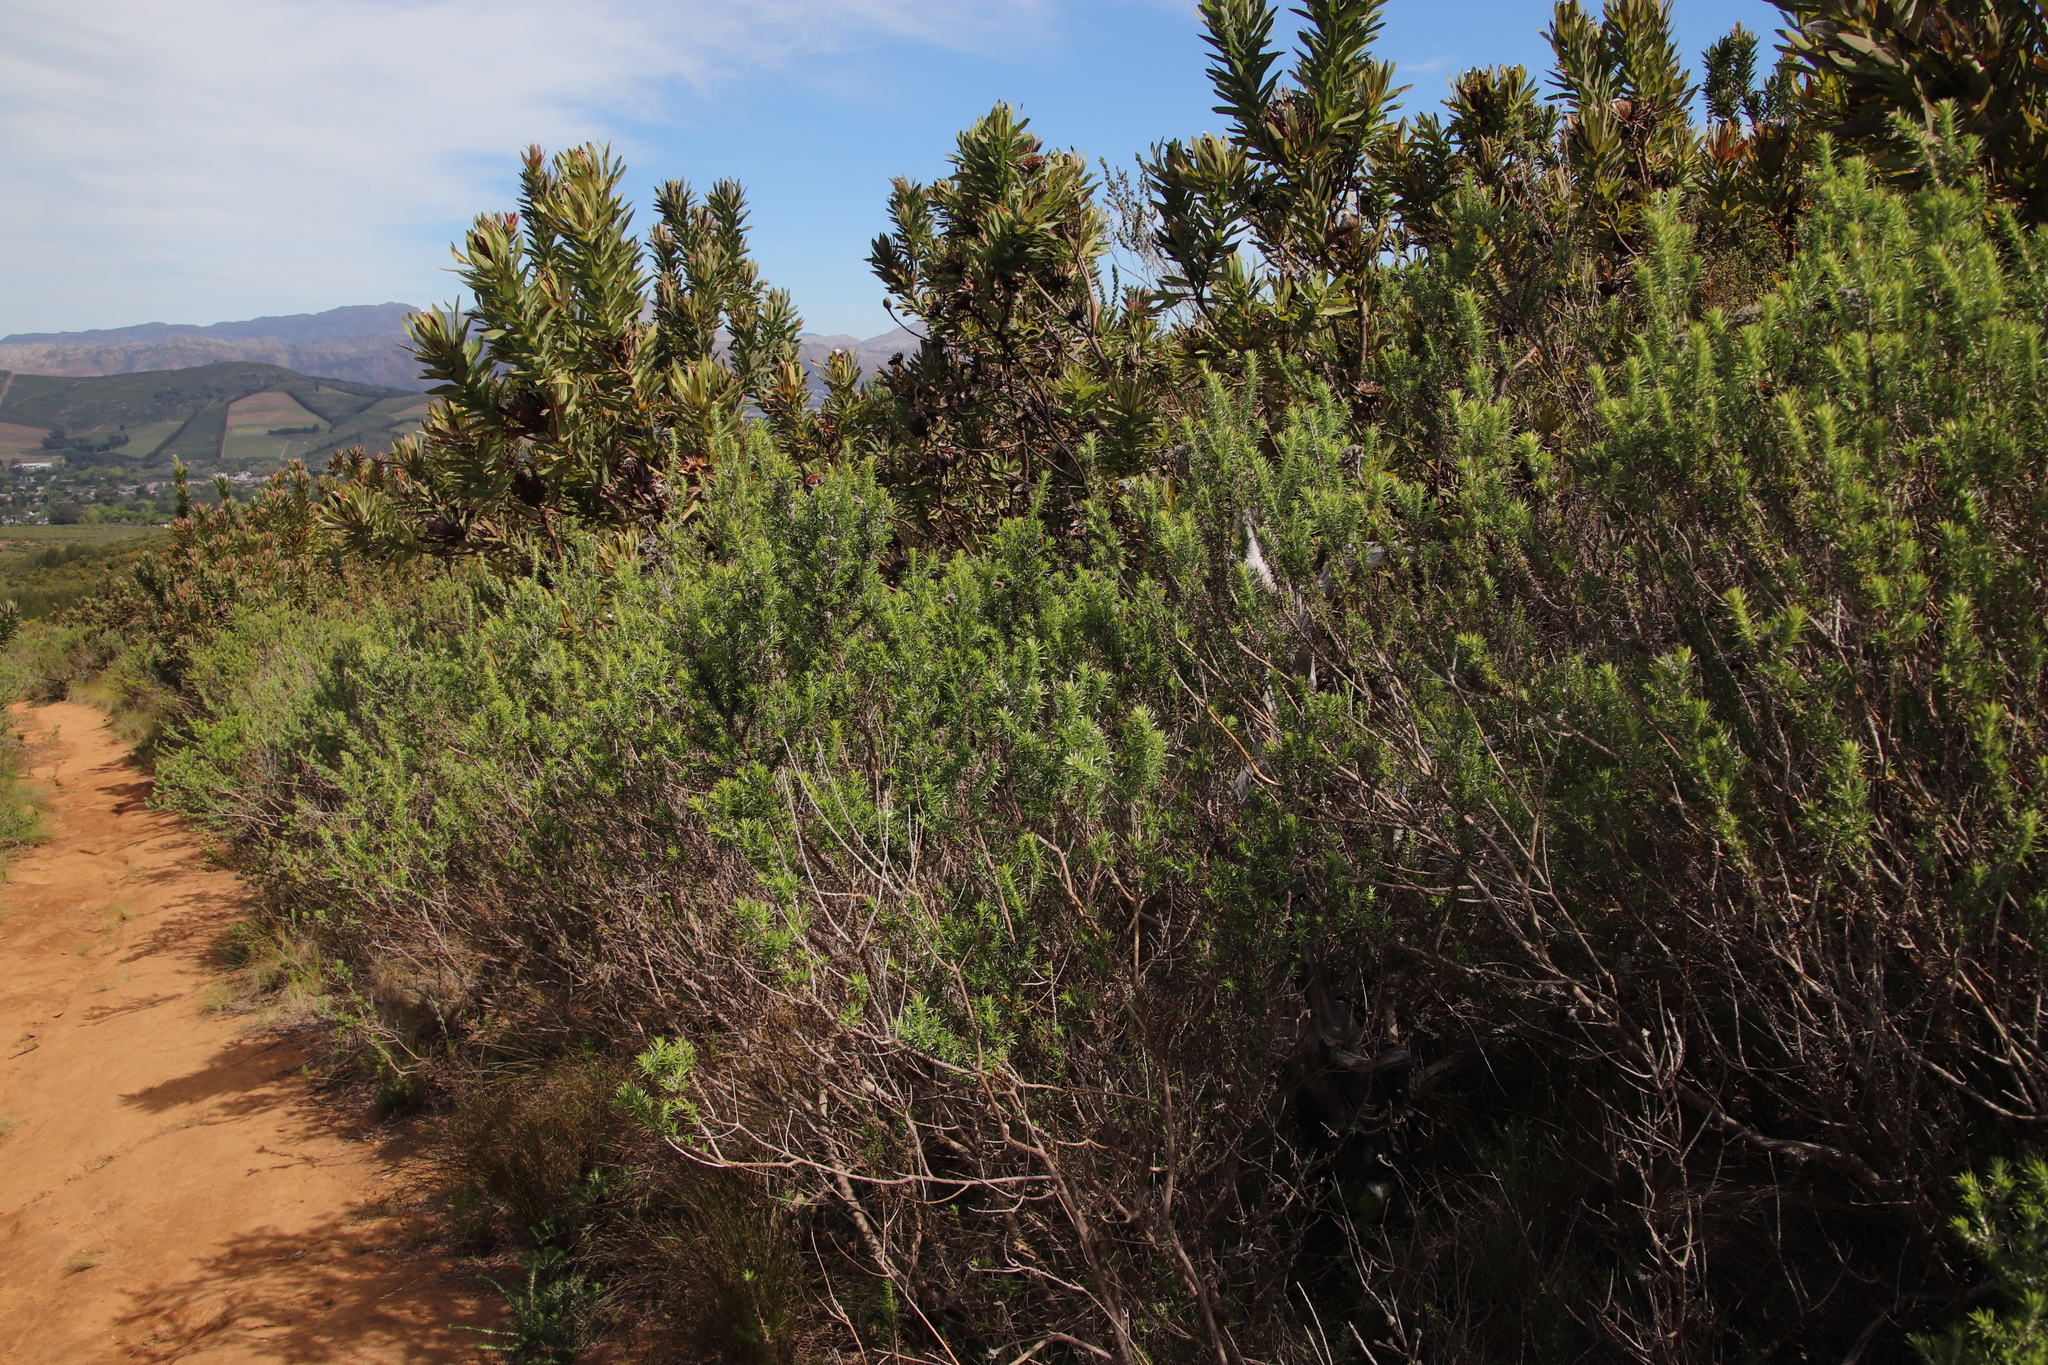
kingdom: Plantae
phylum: Tracheophyta
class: Magnoliopsida
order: Asterales
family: Asteraceae
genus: Metalasia
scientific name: Metalasia densa
